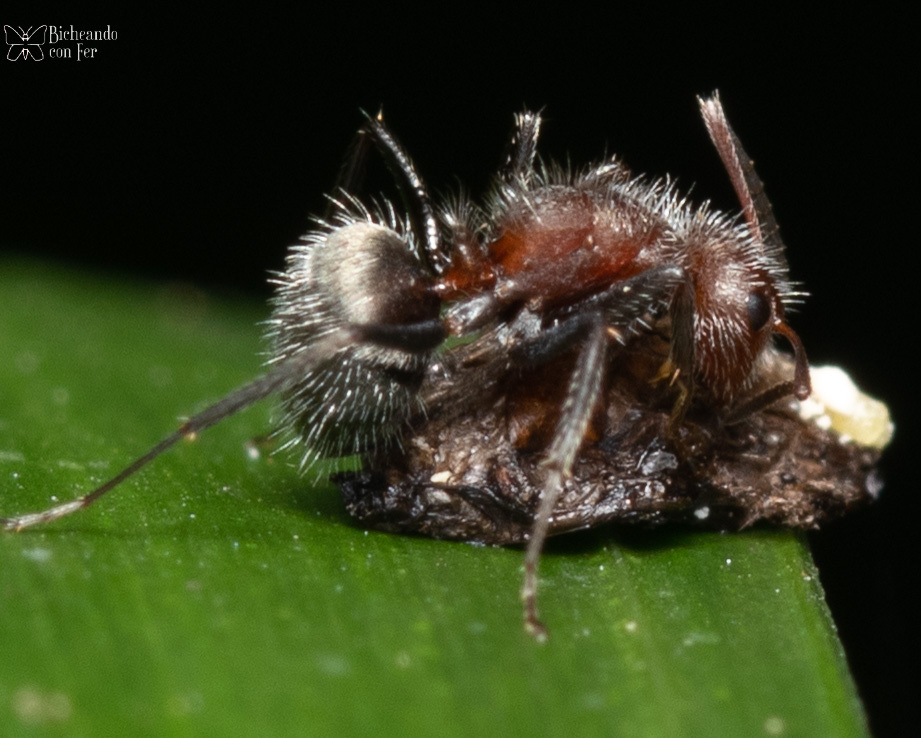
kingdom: Animalia
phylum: Arthropoda
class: Insecta
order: Hymenoptera
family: Formicidae
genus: Camponotus
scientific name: Camponotus planatus
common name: Compact carpenter ant
